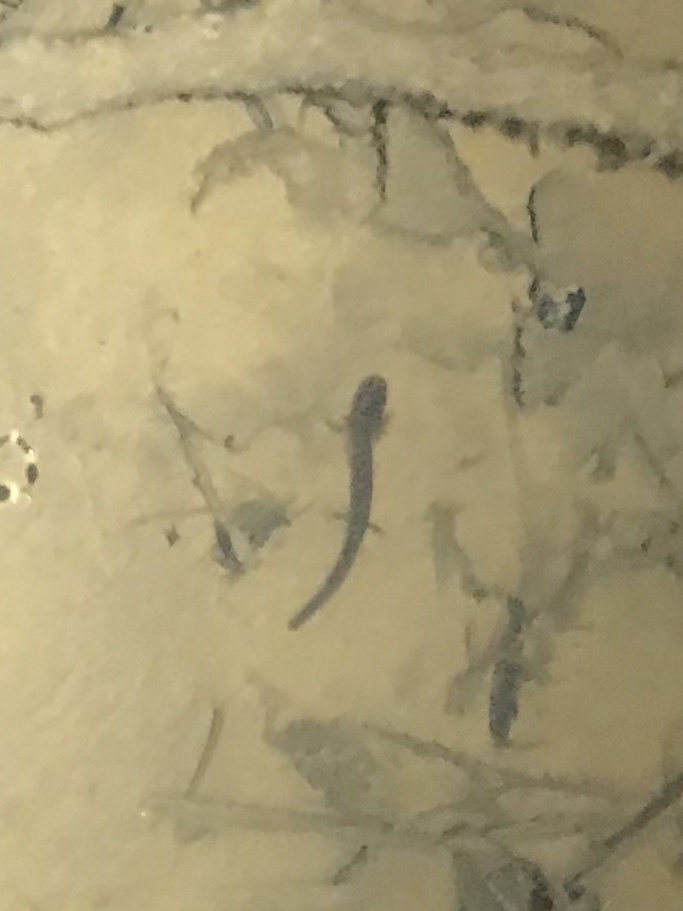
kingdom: Animalia
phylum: Chordata
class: Amphibia
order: Caudata
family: Plethodontidae
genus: Eurycea
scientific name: Eurycea
